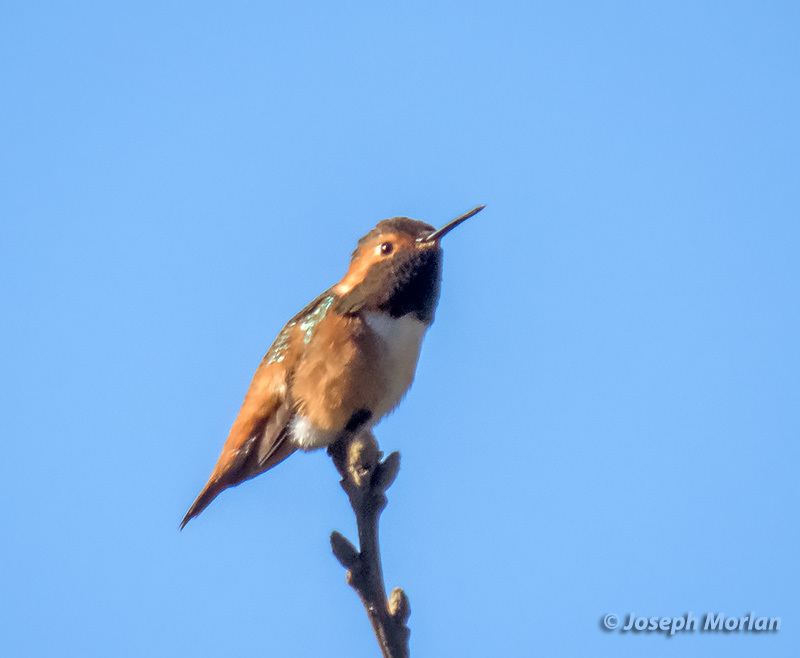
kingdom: Animalia
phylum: Chordata
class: Aves
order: Apodiformes
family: Trochilidae
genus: Selasphorus
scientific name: Selasphorus sasin
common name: Allen's hummingbird
